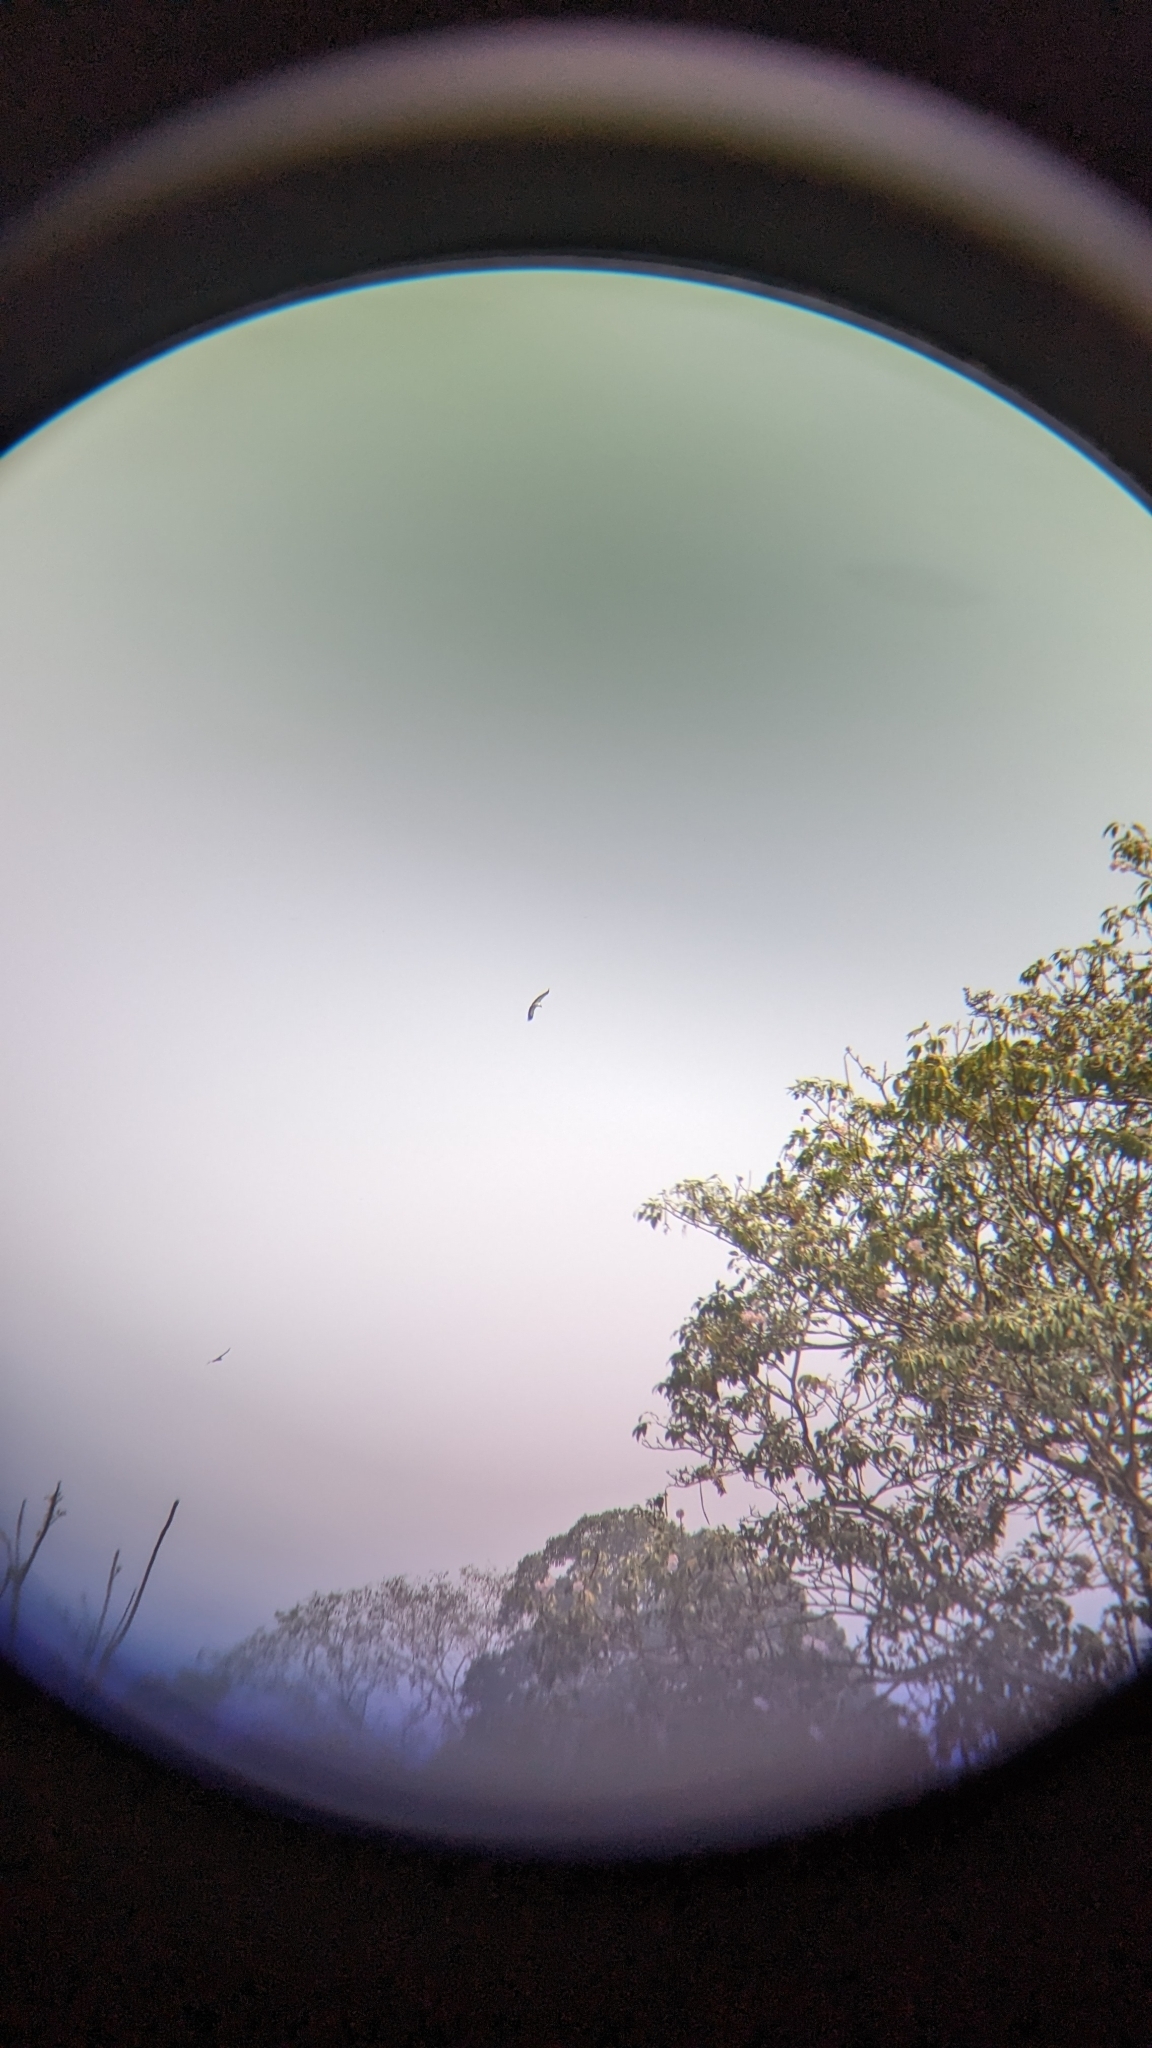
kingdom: Animalia
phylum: Chordata
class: Aves
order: Accipitriformes
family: Cathartidae
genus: Sarcoramphus
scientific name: Sarcoramphus papa
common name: King vulture
